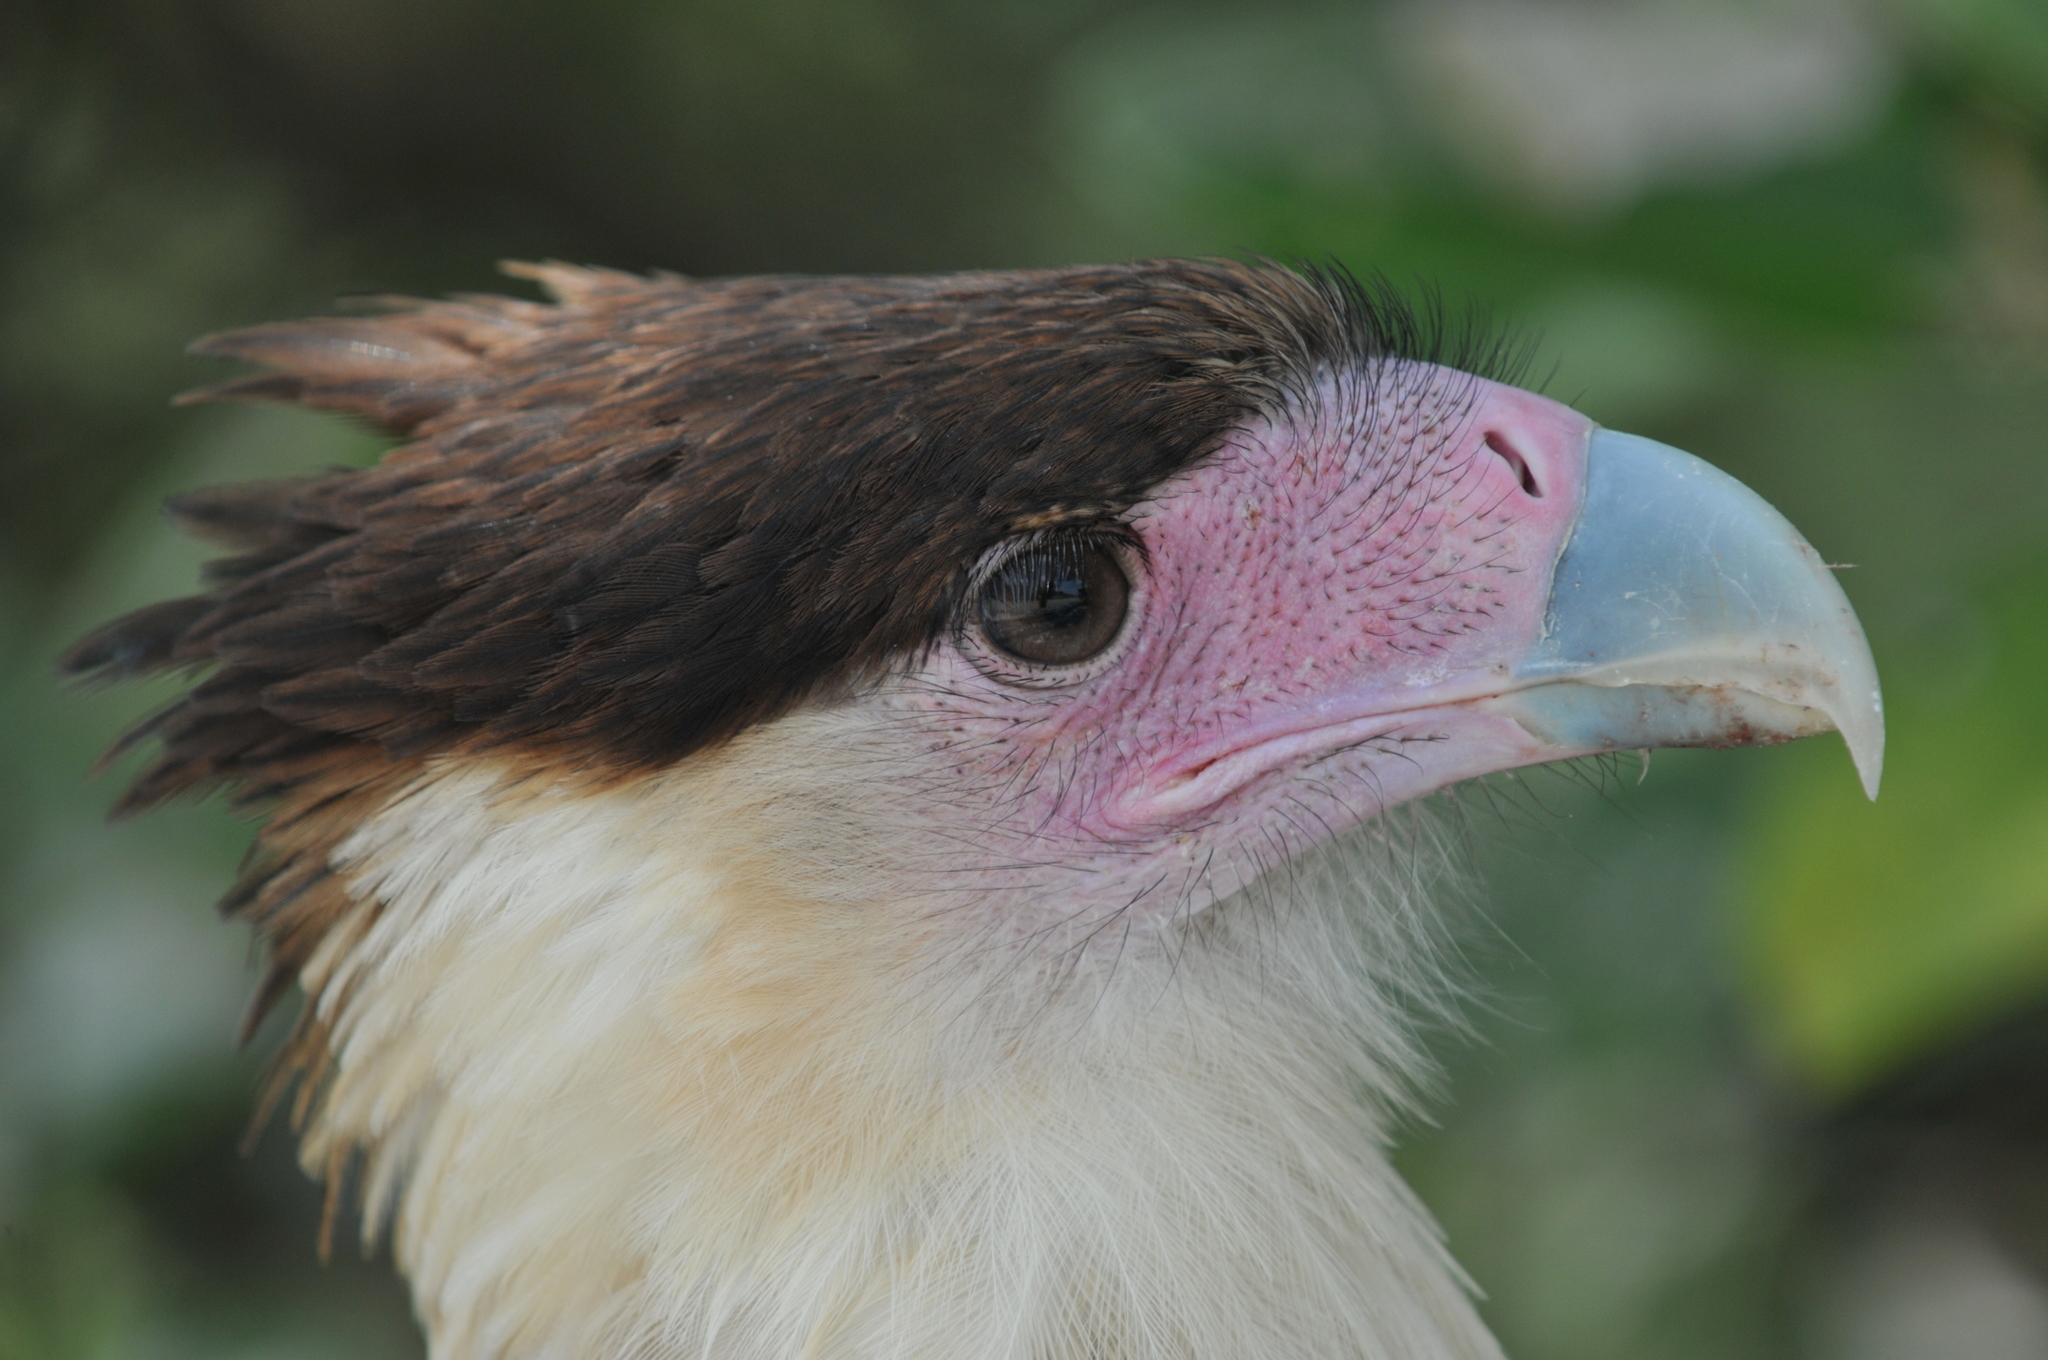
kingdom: Animalia
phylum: Chordata
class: Aves
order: Falconiformes
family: Falconidae
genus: Caracara
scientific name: Caracara plancus
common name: Southern caracara
